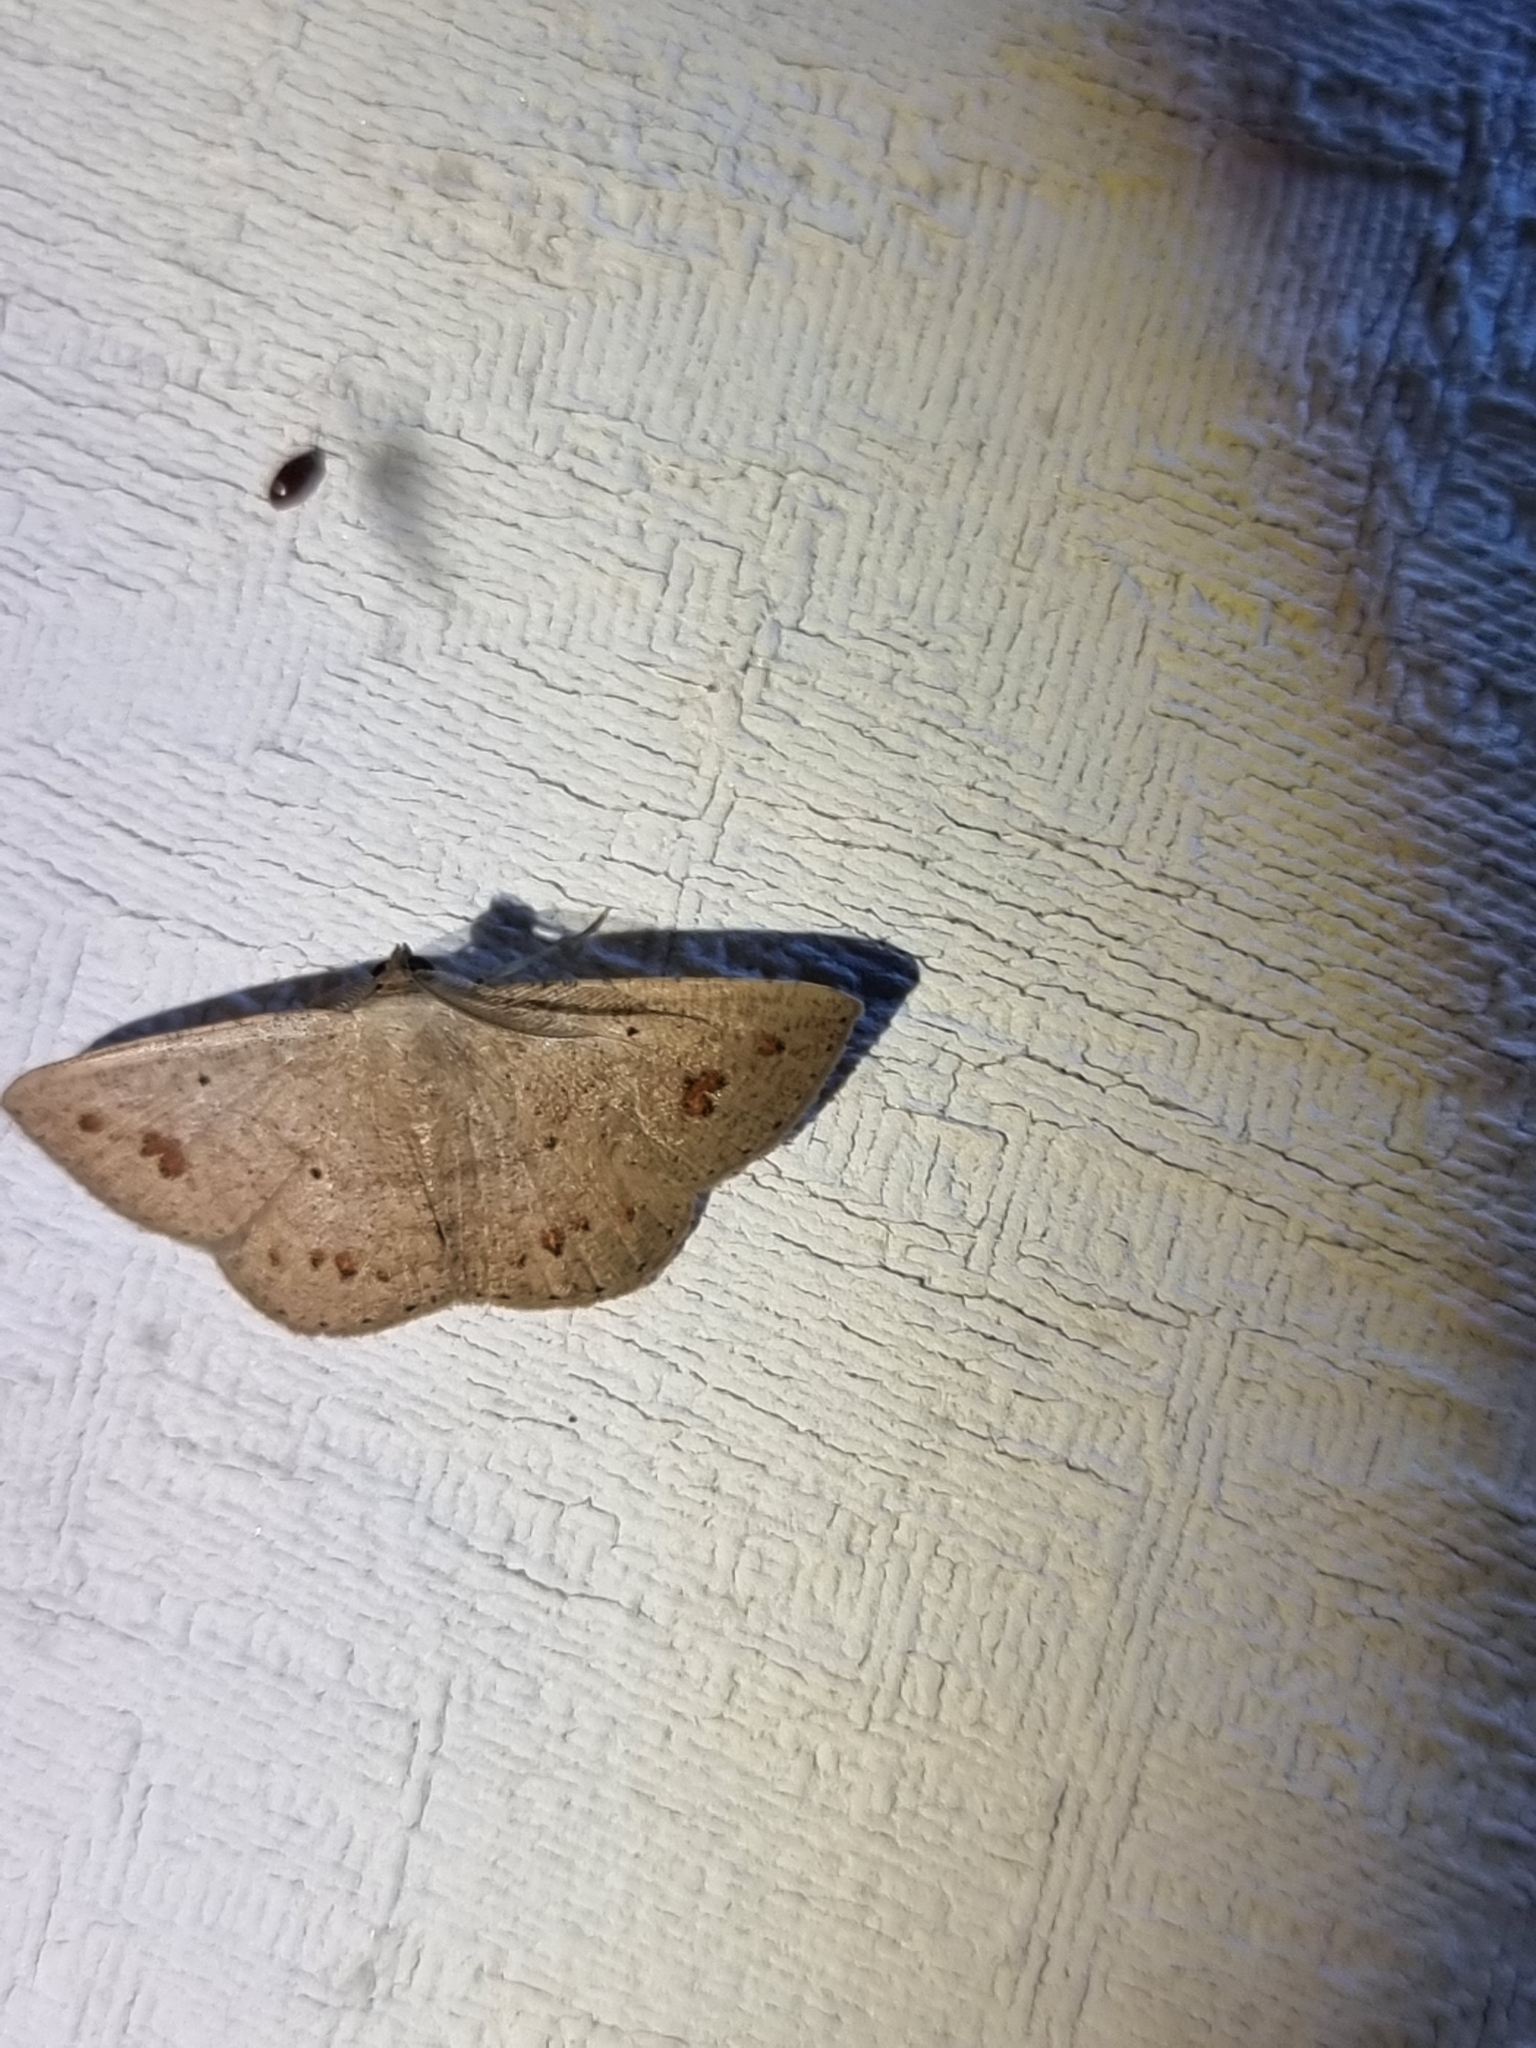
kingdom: Animalia
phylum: Arthropoda
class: Insecta
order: Lepidoptera
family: Geometridae
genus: Casbia
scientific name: Casbia rectaria
